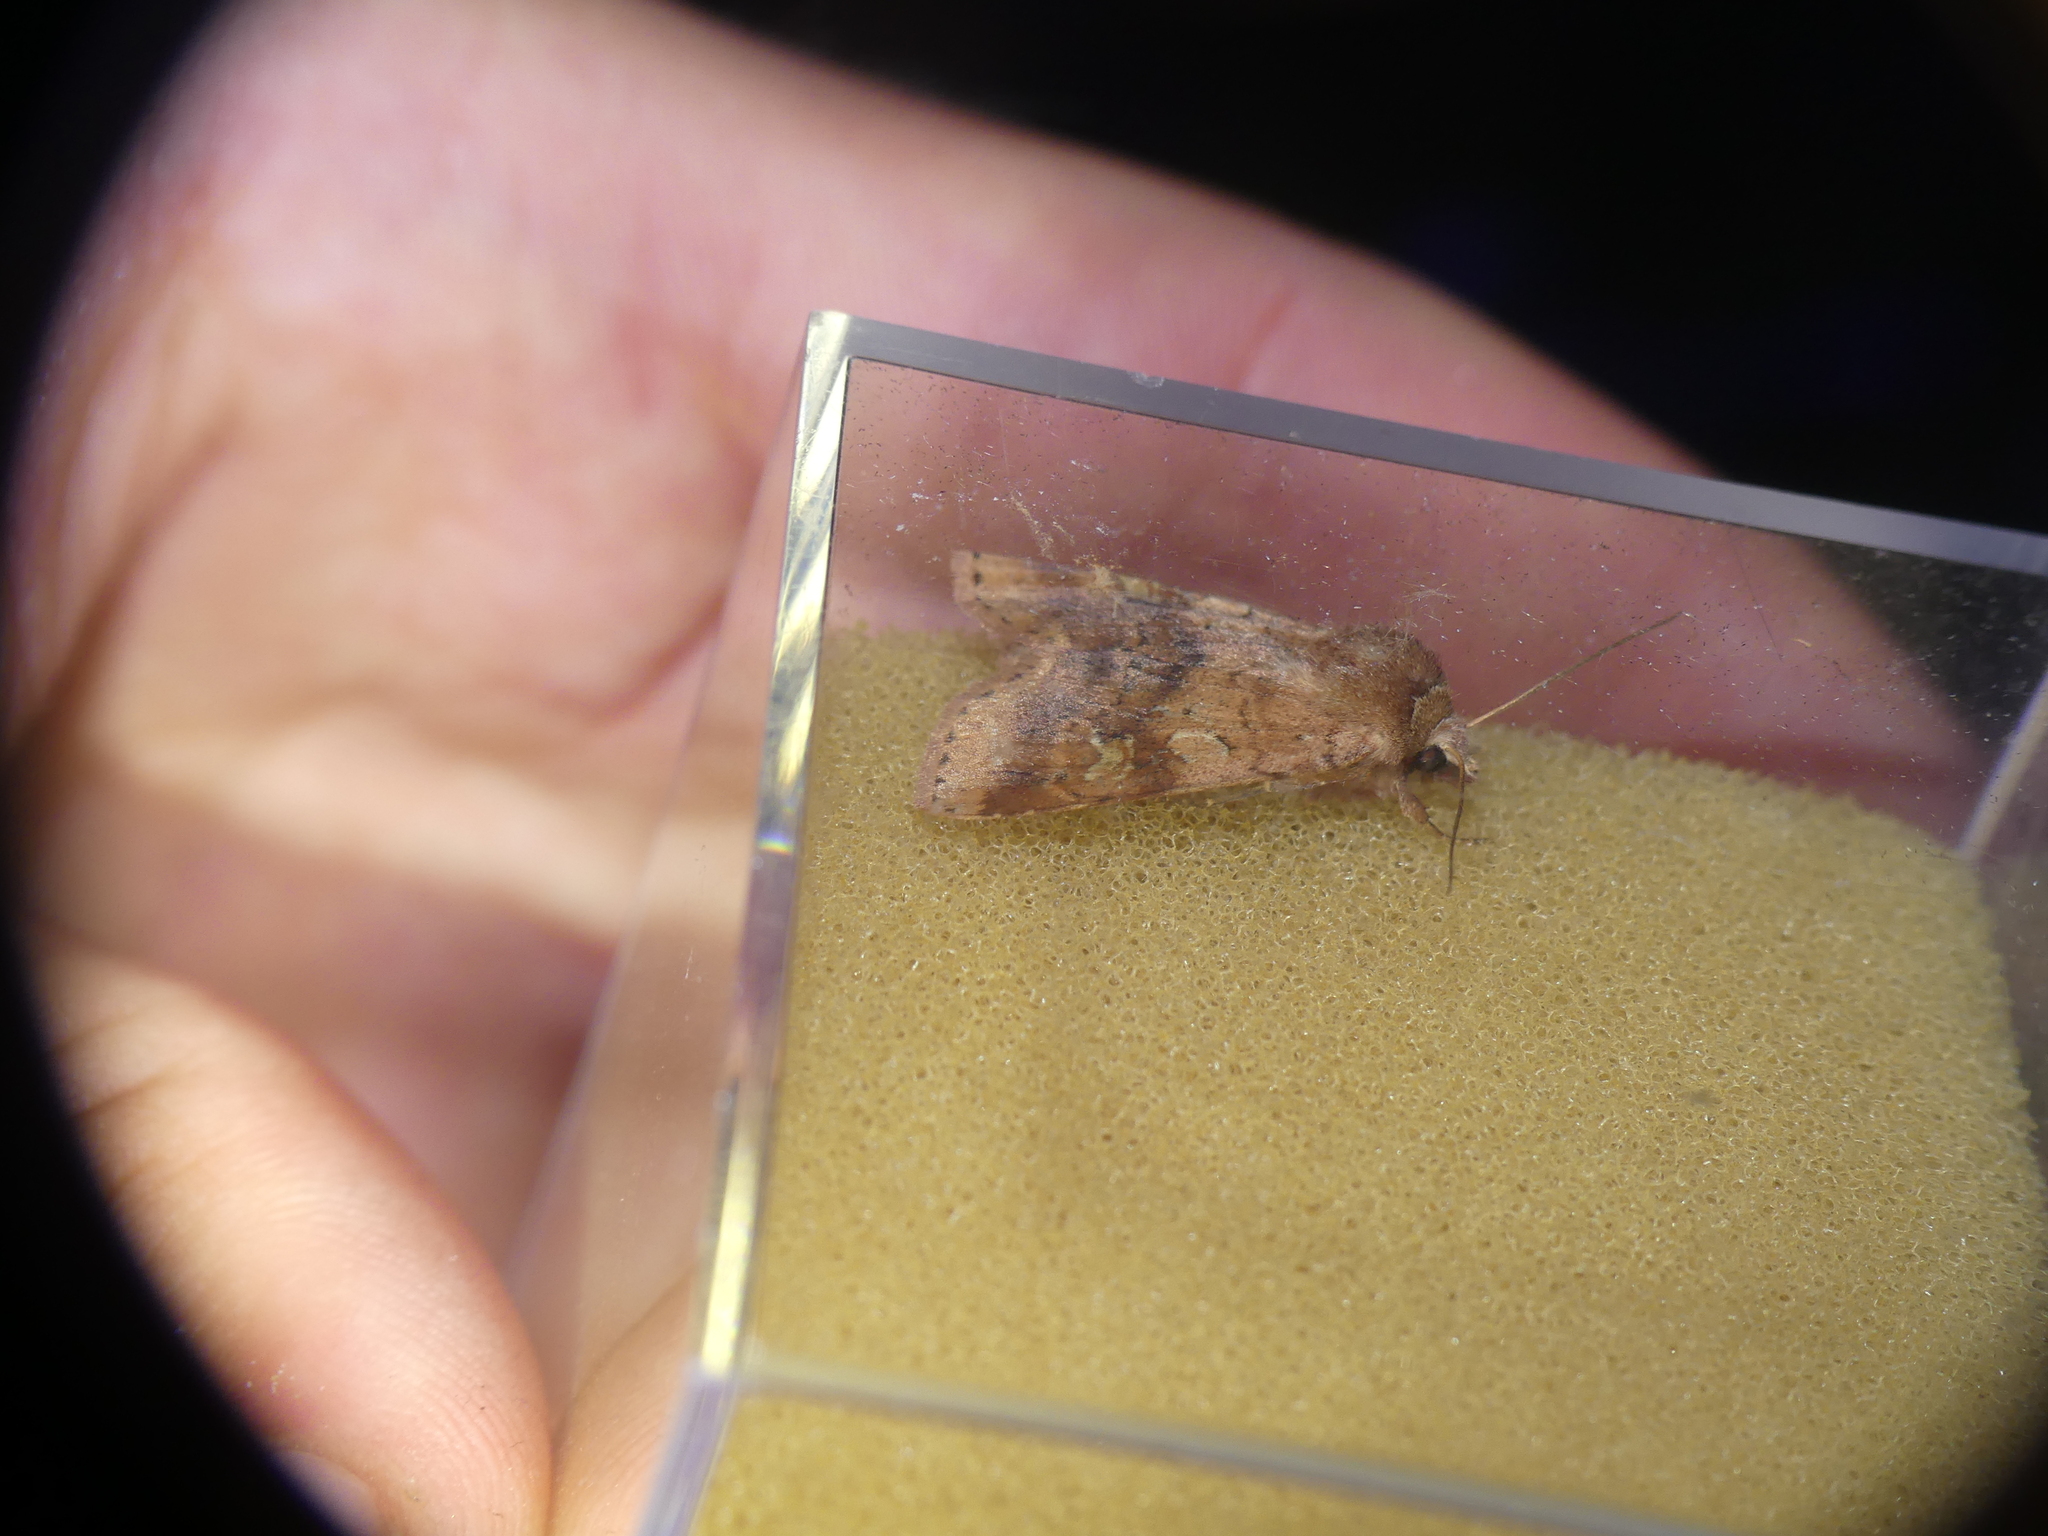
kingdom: Animalia
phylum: Arthropoda
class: Insecta
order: Lepidoptera
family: Noctuidae
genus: Diarsia
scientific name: Diarsia mendica
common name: Ingrailed clay
